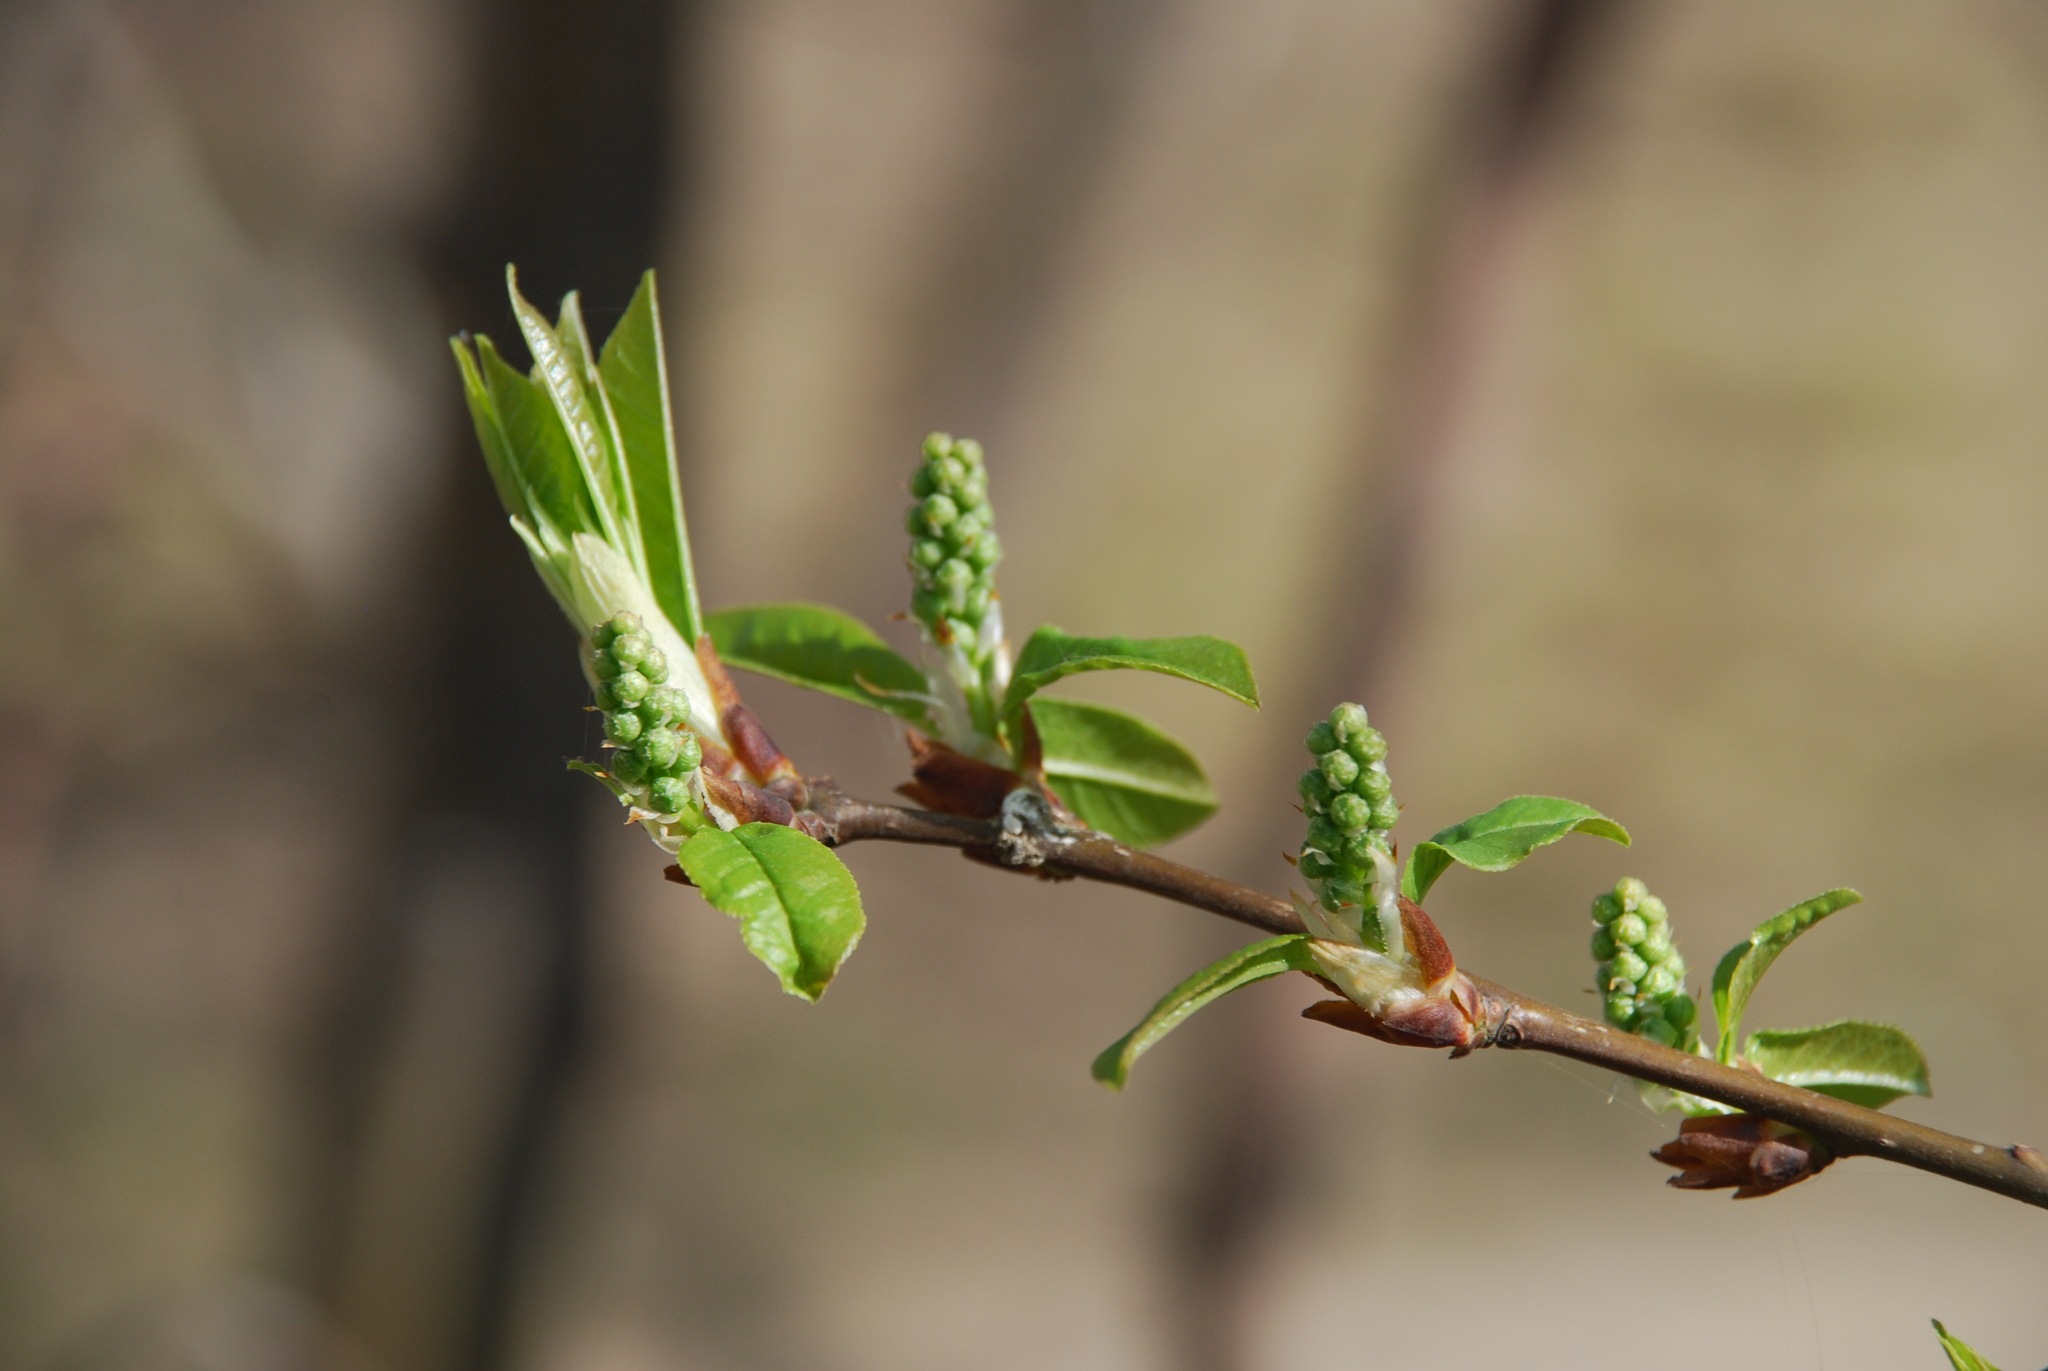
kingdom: Plantae
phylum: Tracheophyta
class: Magnoliopsida
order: Rosales
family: Rosaceae
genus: Prunus
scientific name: Prunus padus
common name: Bird cherry
